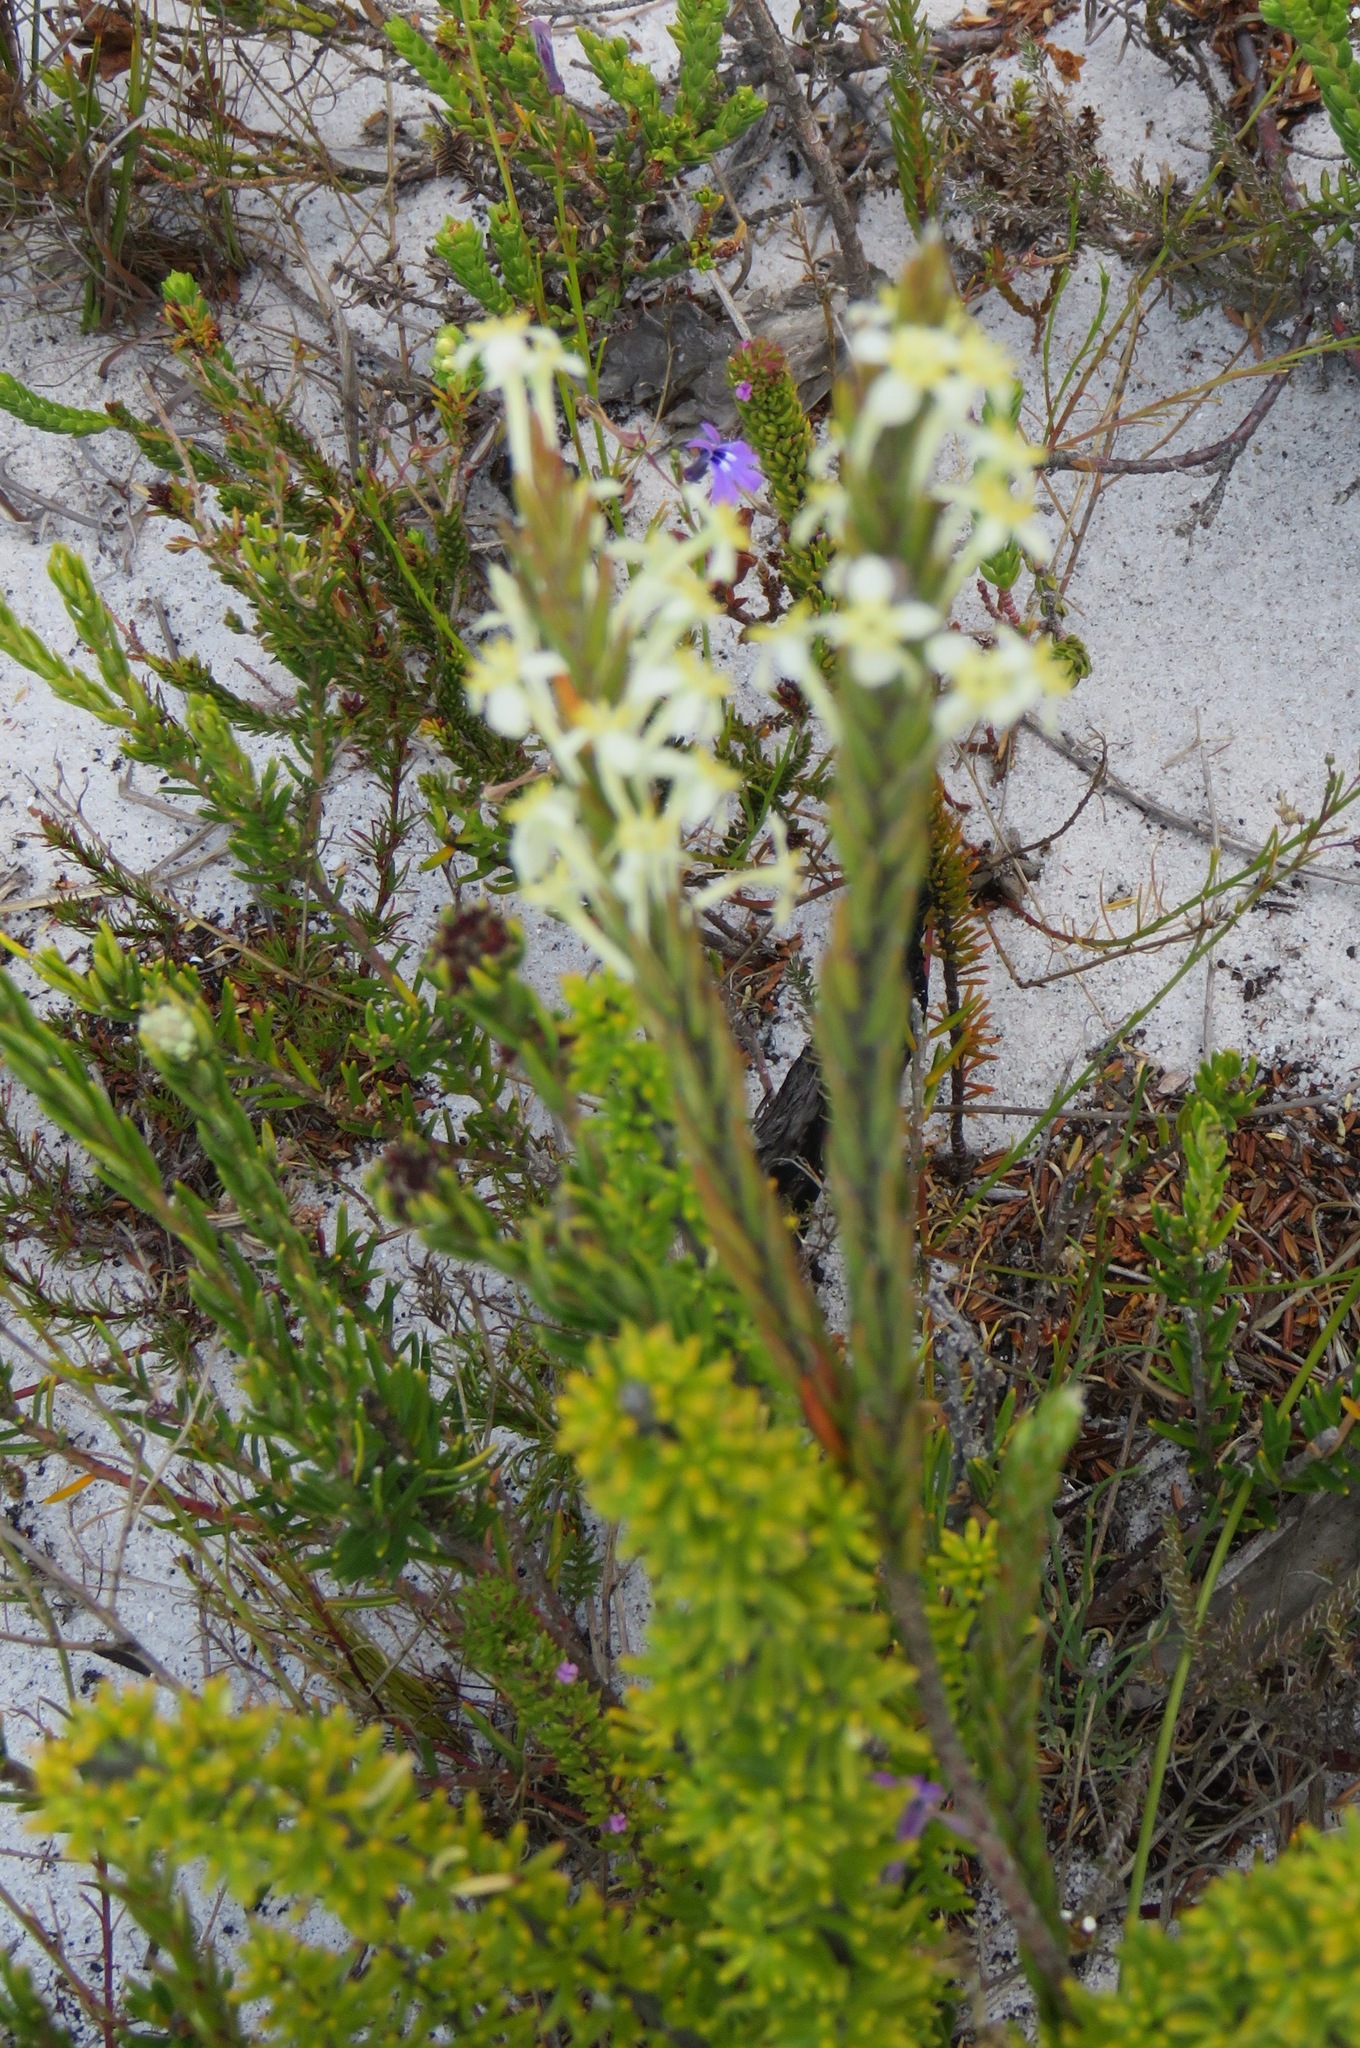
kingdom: Plantae
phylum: Tracheophyta
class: Magnoliopsida
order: Malvales
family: Thymelaeaceae
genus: Struthiola
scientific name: Struthiola ciliata
